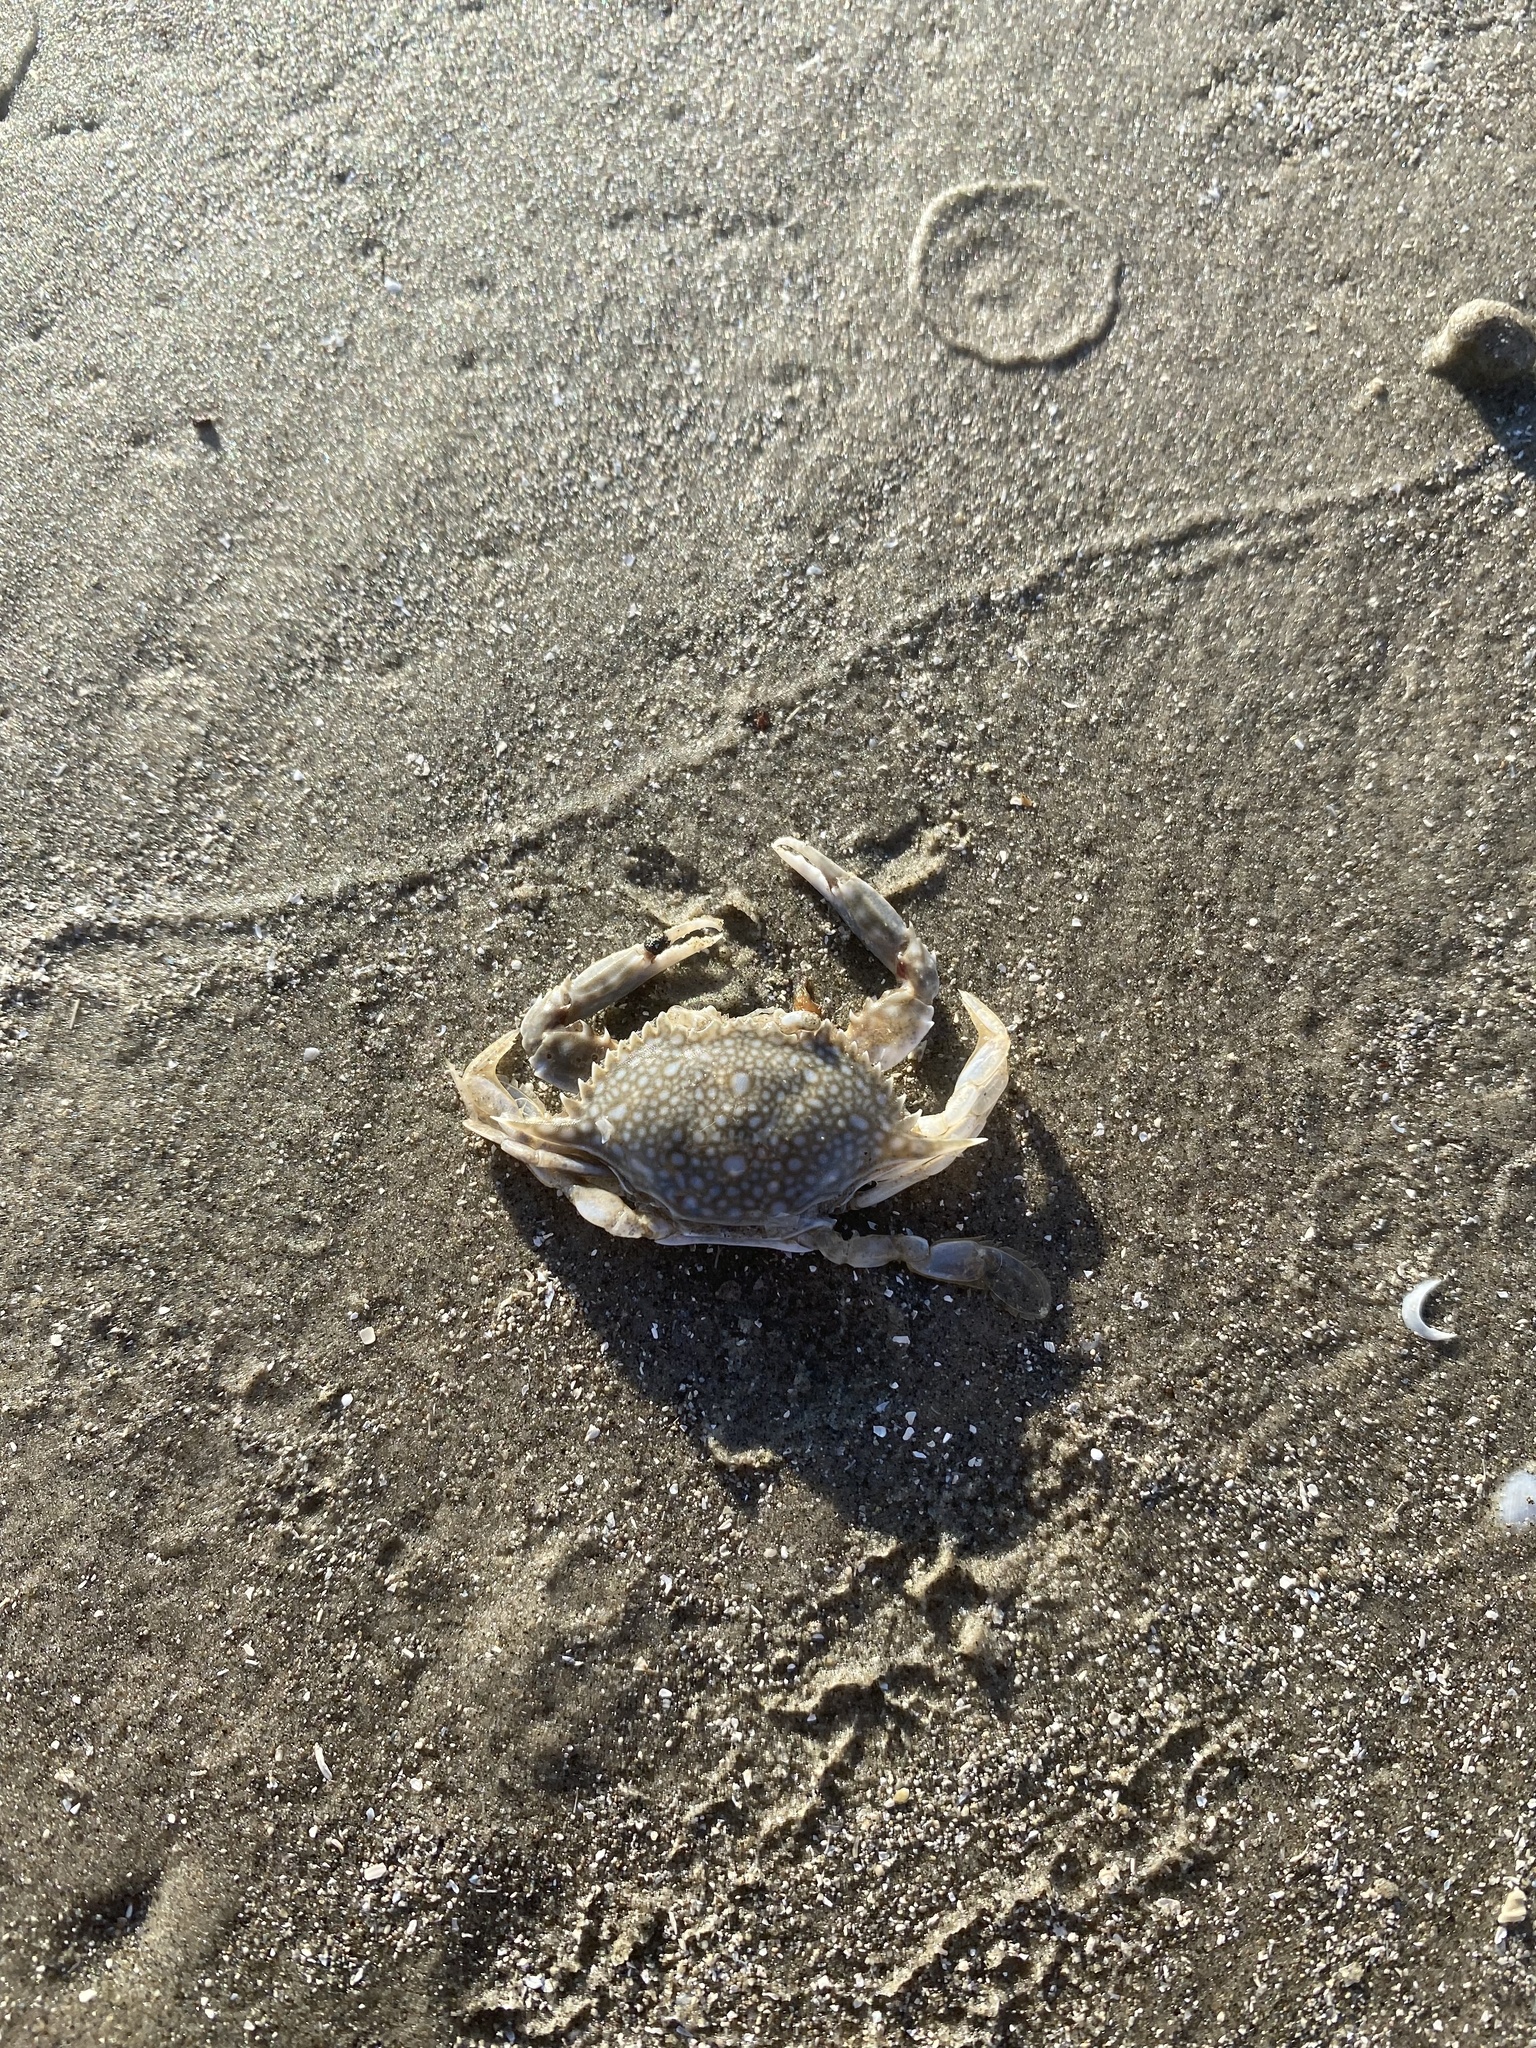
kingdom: Animalia
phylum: Arthropoda
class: Malacostraca
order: Decapoda
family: Portunidae
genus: Arenaeus
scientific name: Arenaeus cribrarius
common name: Speckled crab
